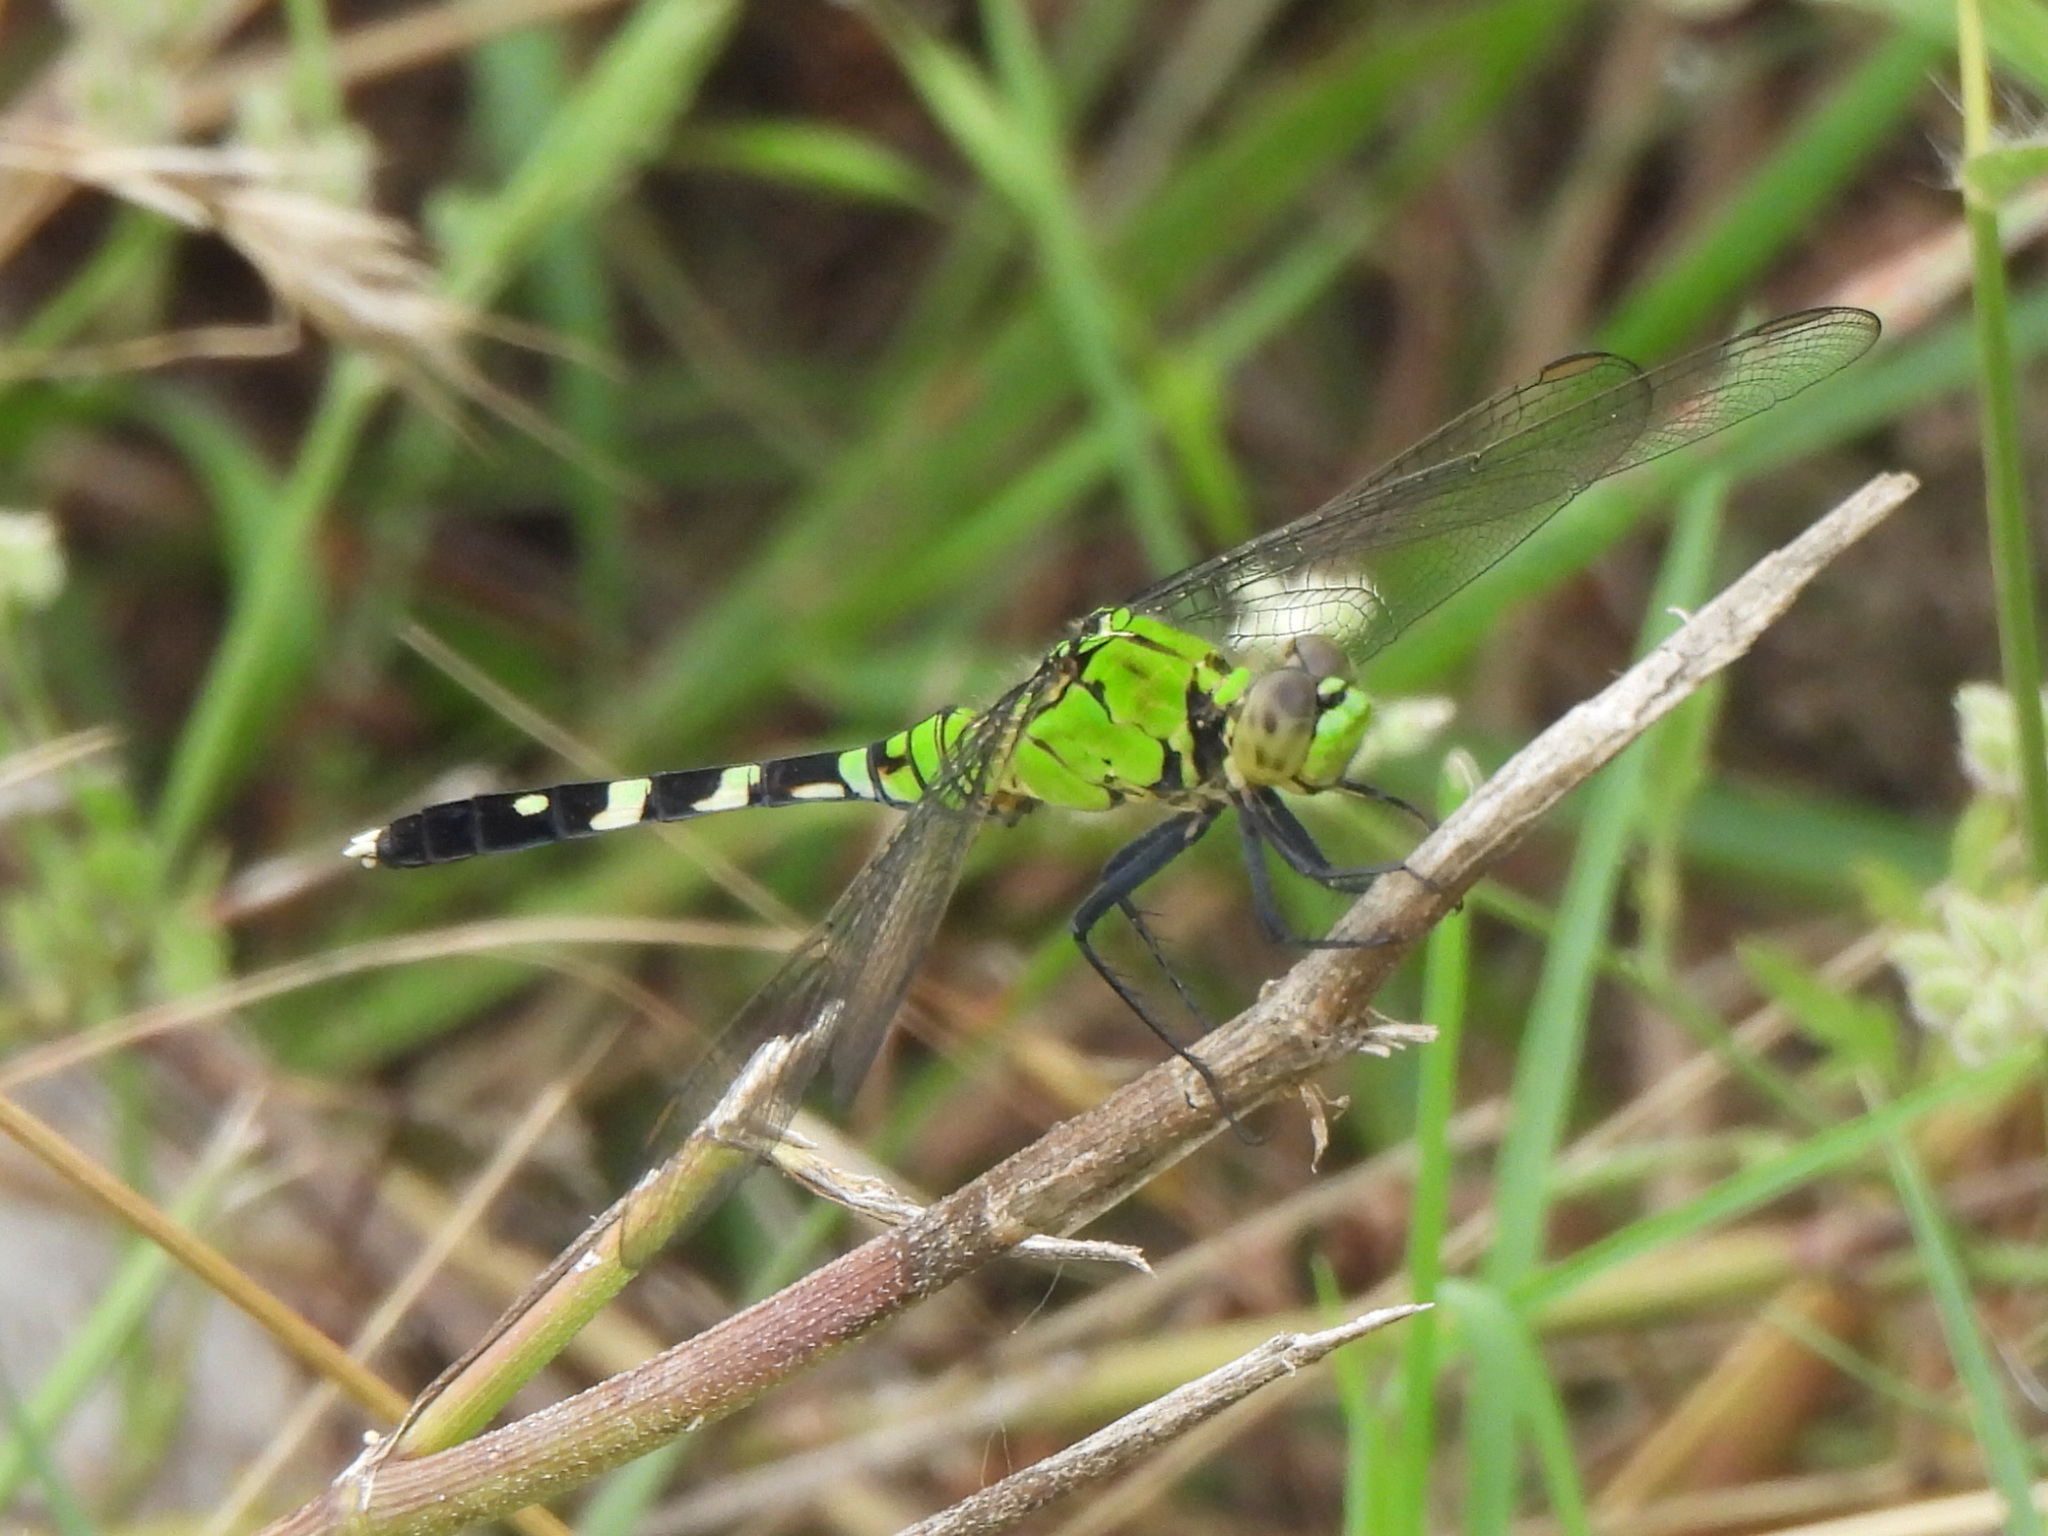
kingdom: Animalia
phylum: Arthropoda
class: Insecta
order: Odonata
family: Libellulidae
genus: Erythemis
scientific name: Erythemis simplicicollis
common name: Eastern pondhawk
